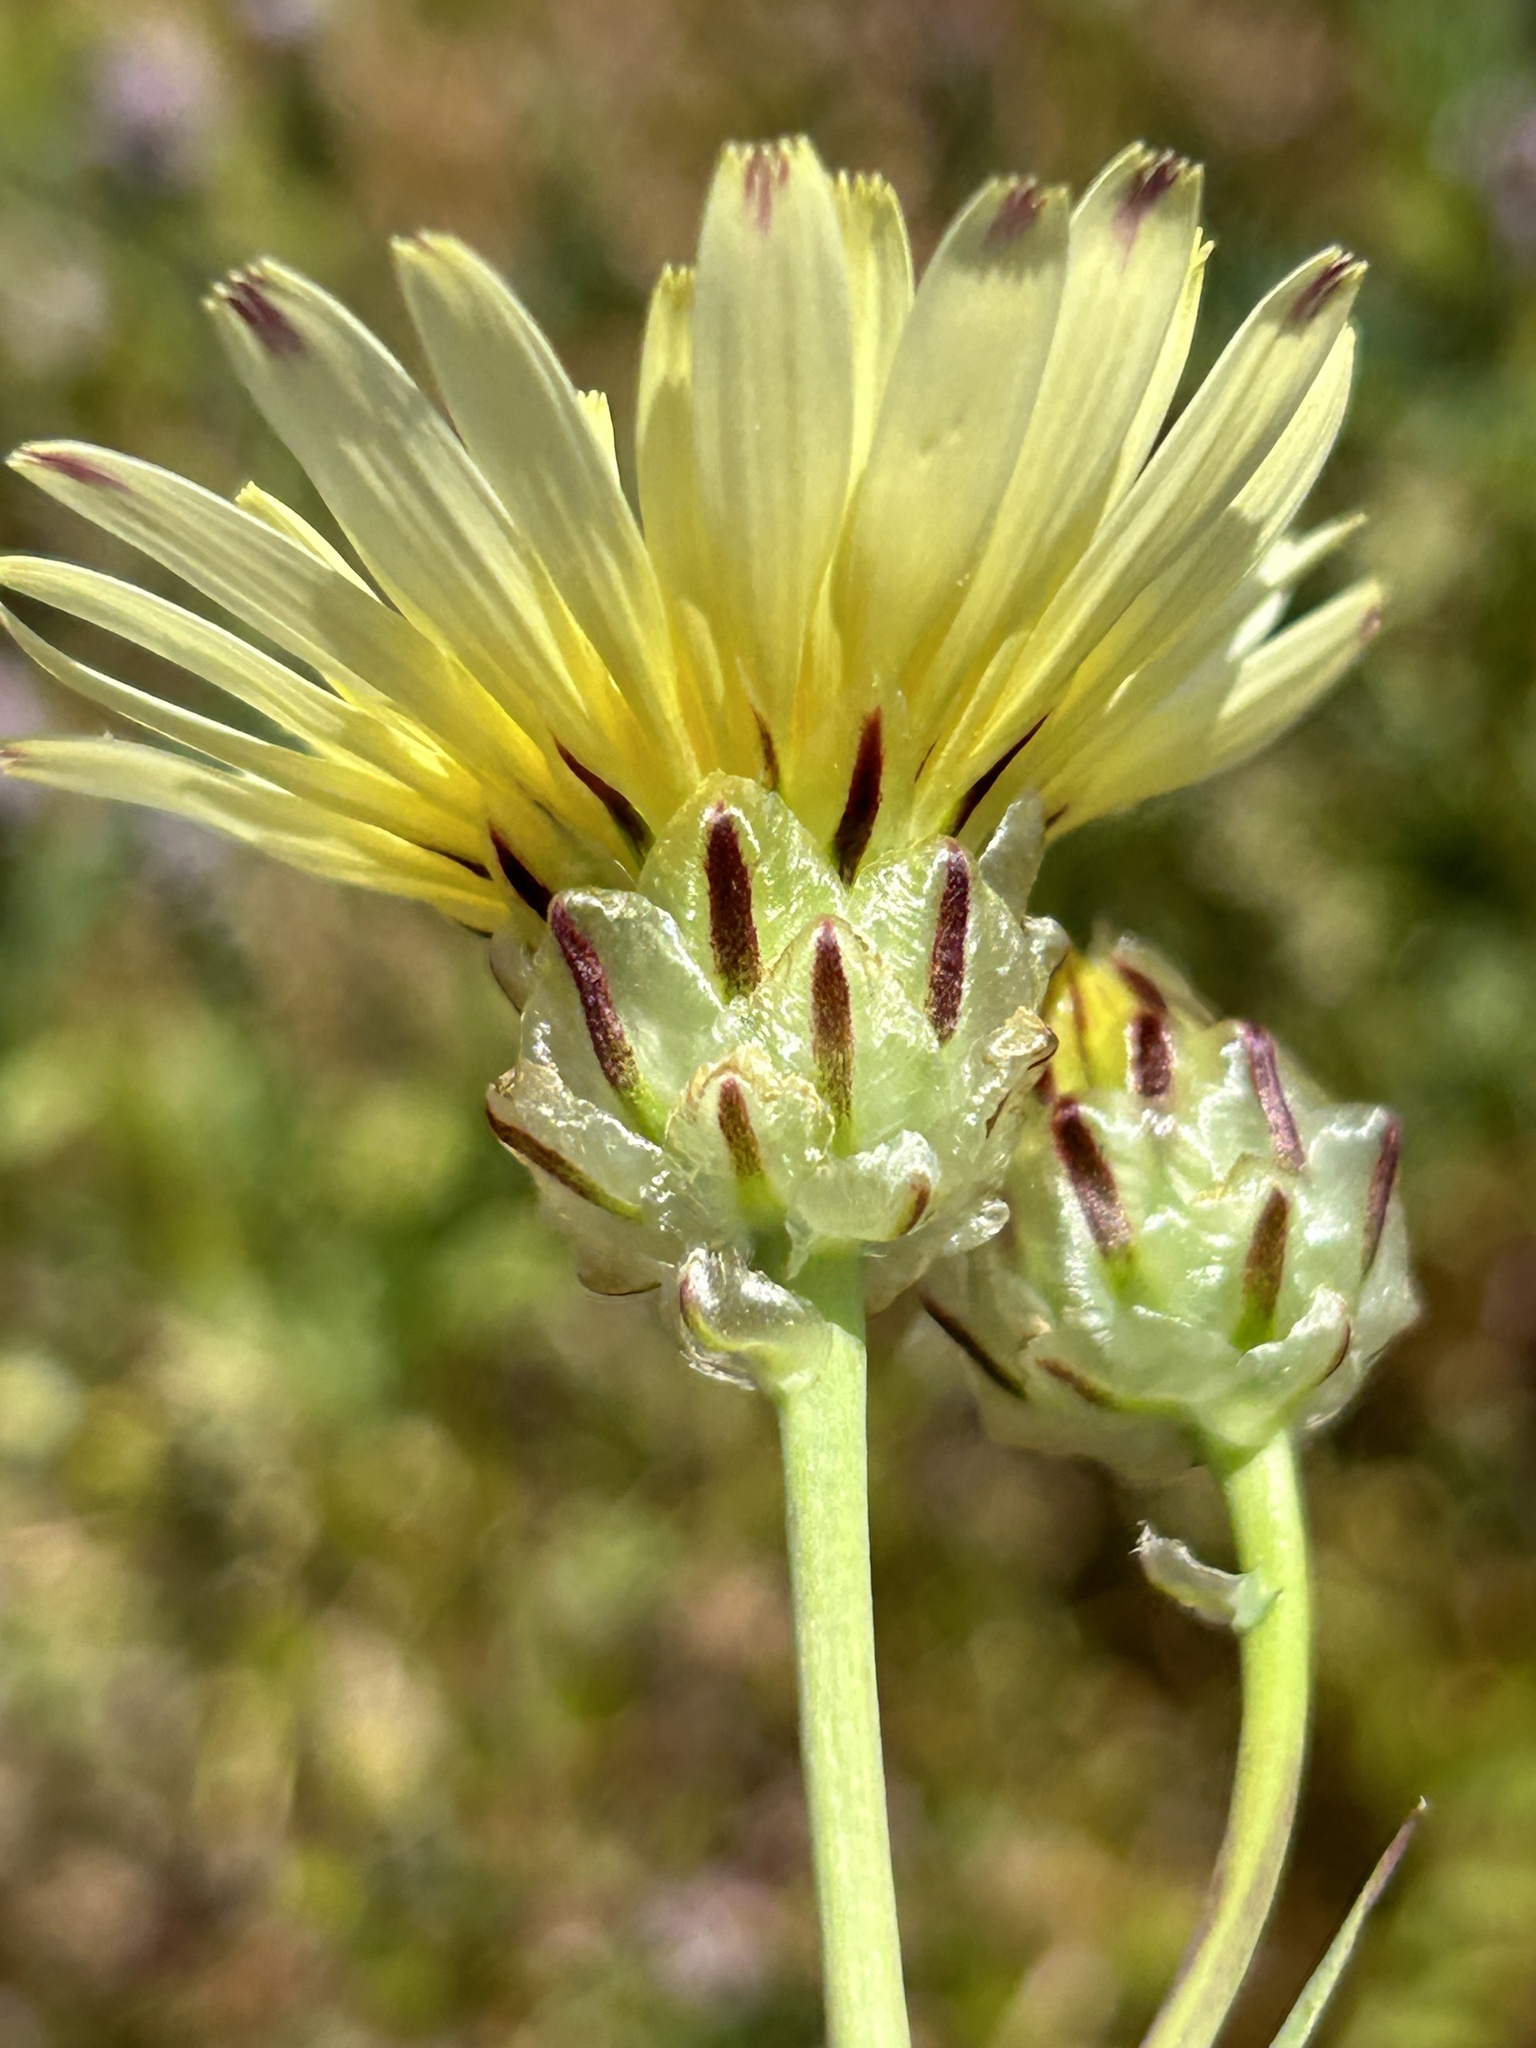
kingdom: Plantae
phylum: Tracheophyta
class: Magnoliopsida
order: Asterales
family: Asteraceae
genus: Malacothrix
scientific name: Malacothrix coulteri
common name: Snake's-head
